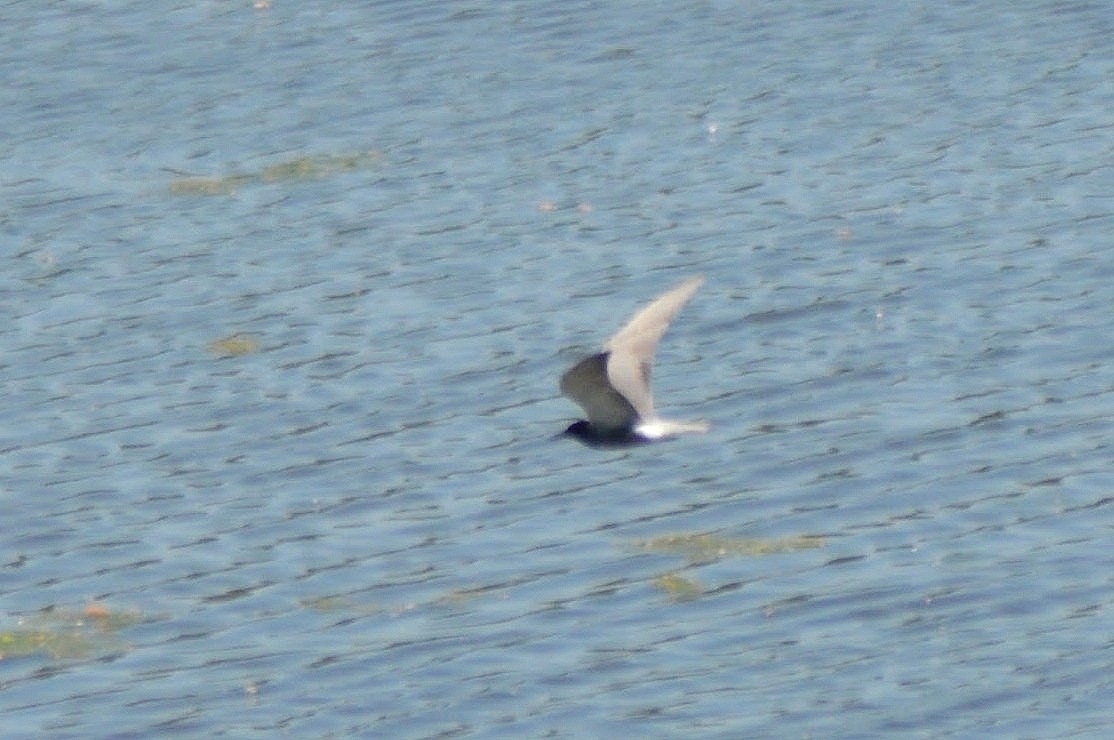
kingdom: Animalia
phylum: Chordata
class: Aves
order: Charadriiformes
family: Laridae
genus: Chlidonias
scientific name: Chlidonias niger
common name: Black tern
